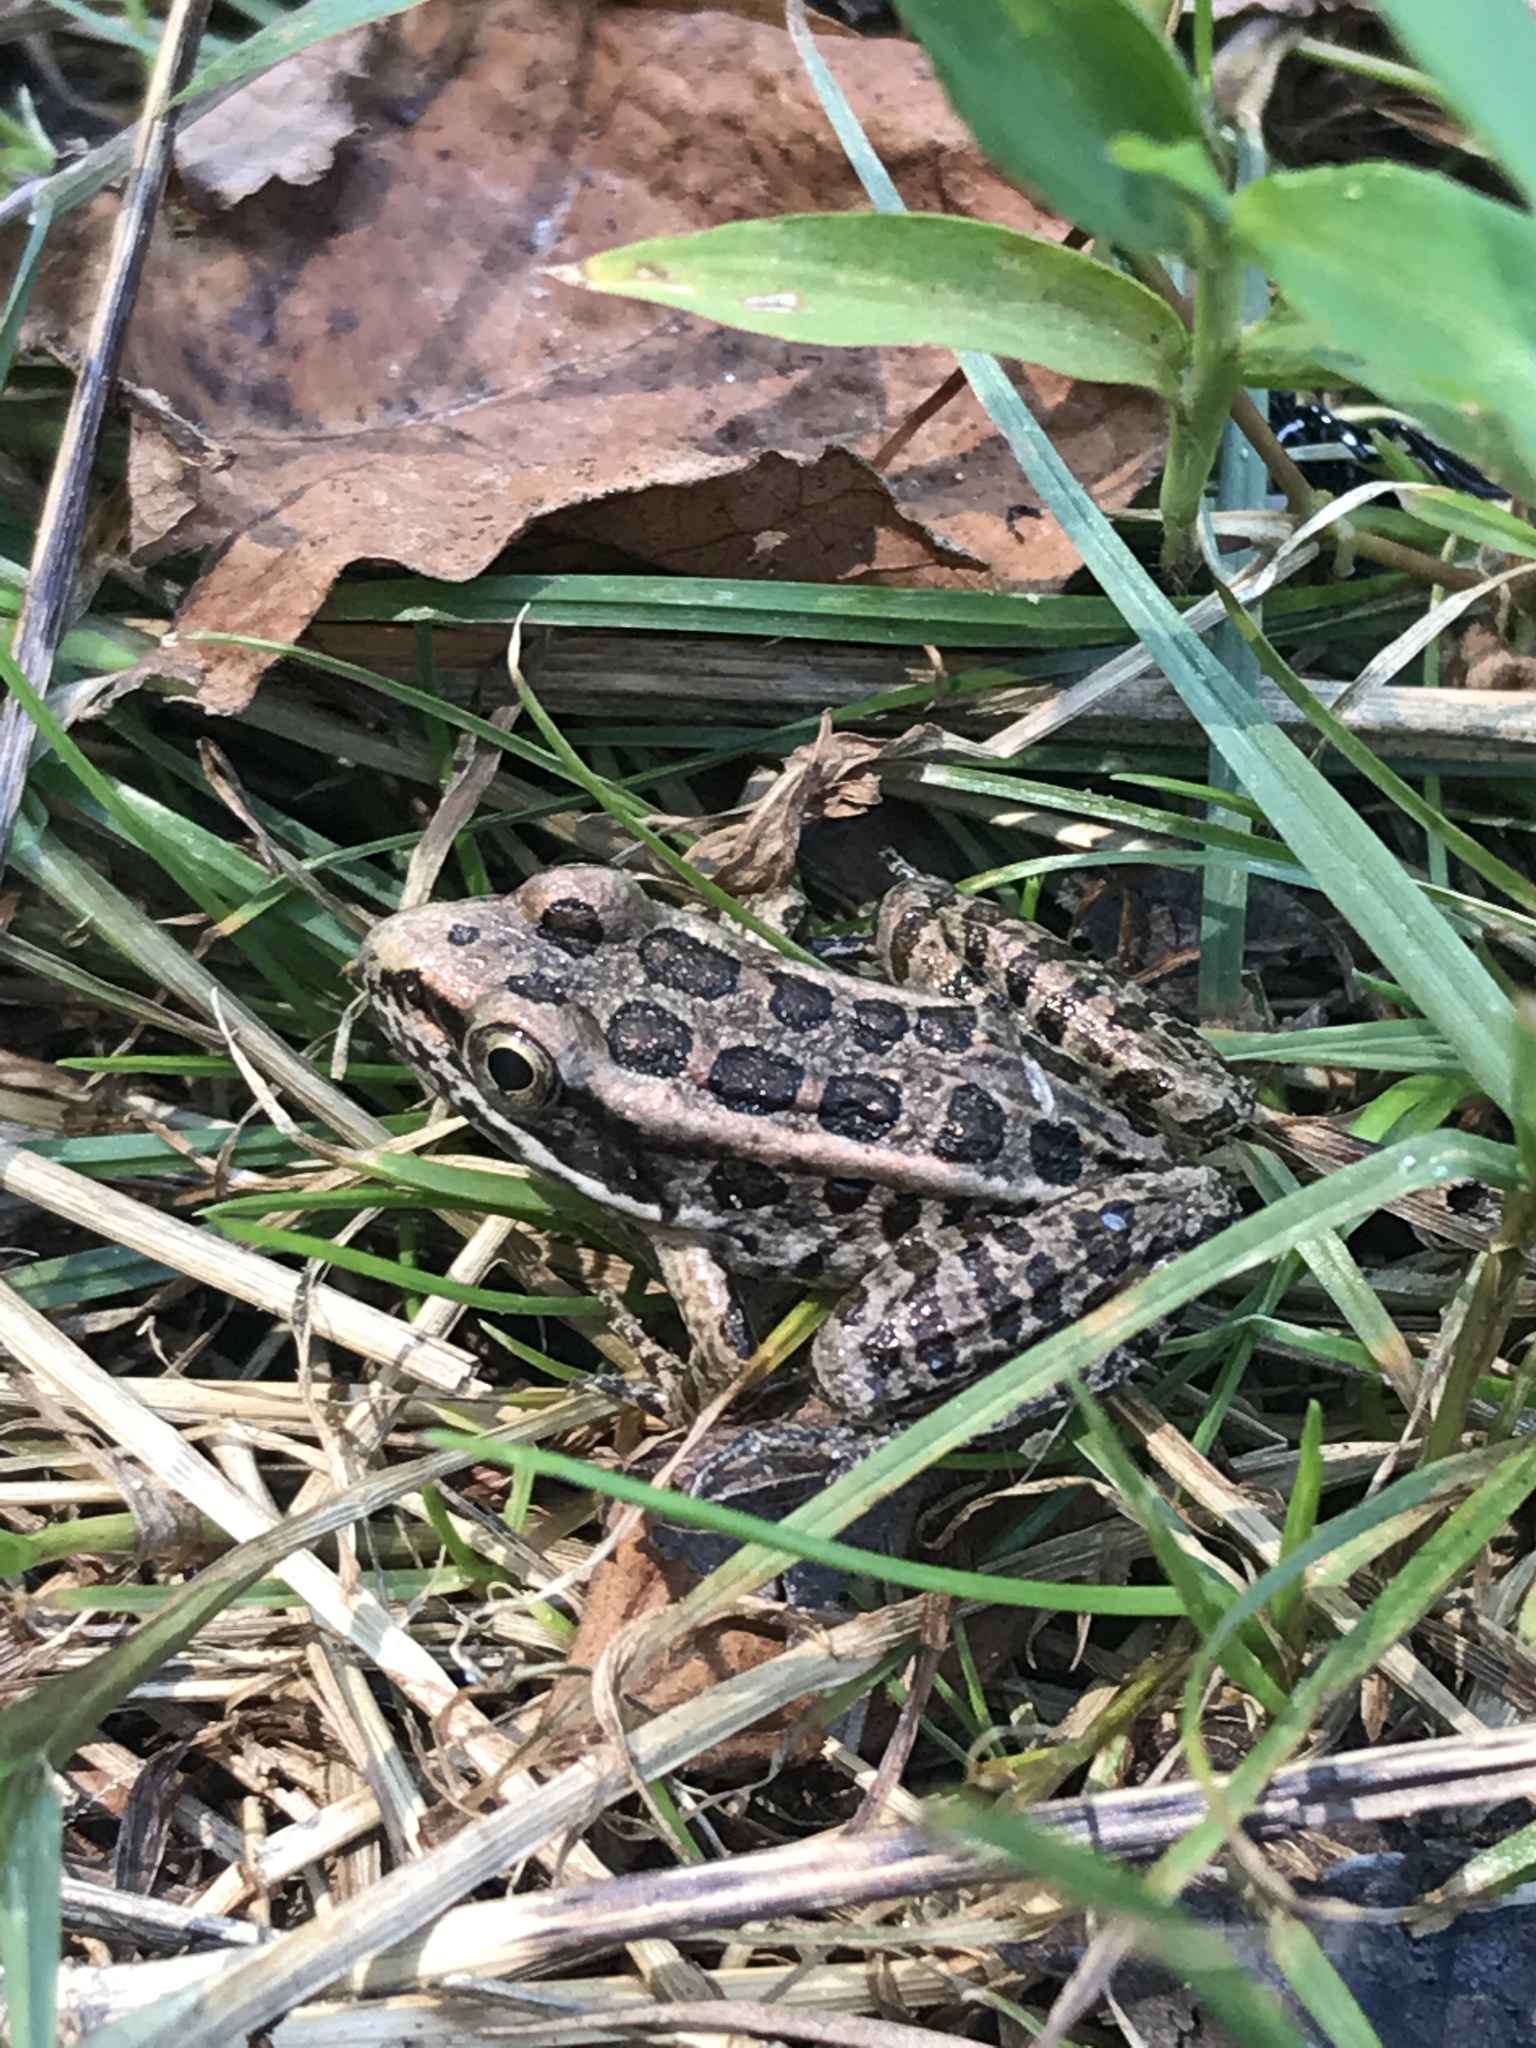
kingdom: Animalia
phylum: Chordata
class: Amphibia
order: Anura
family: Ranidae
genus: Lithobates
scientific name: Lithobates palustris
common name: Pickerel frog
